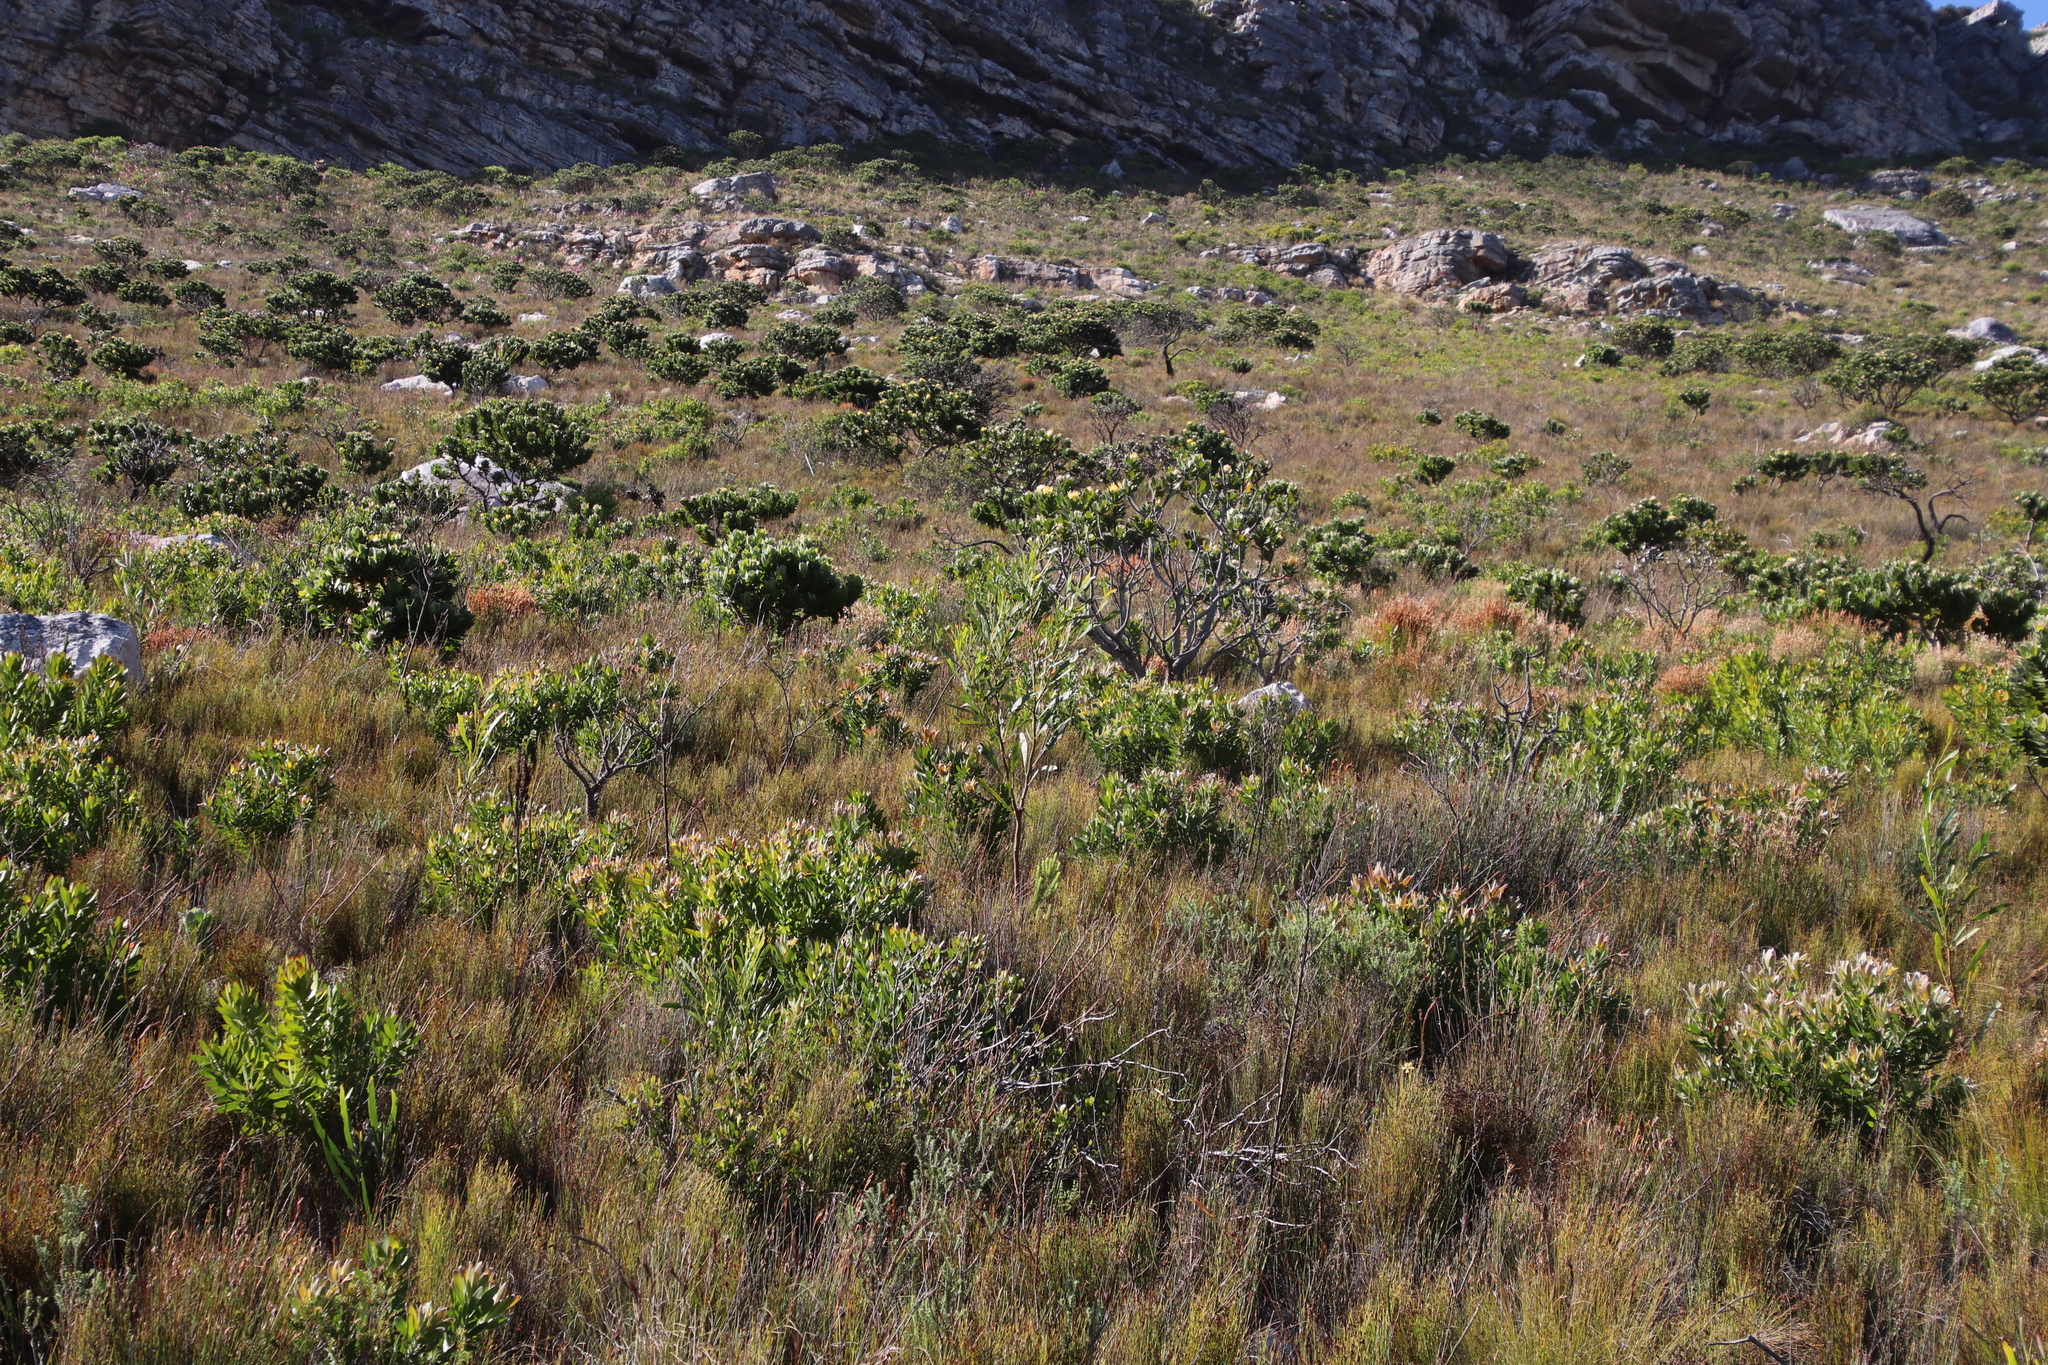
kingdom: Plantae
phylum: Tracheophyta
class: Magnoliopsida
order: Fabales
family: Fabaceae
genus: Acacia
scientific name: Acacia saligna
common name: Orange wattle
